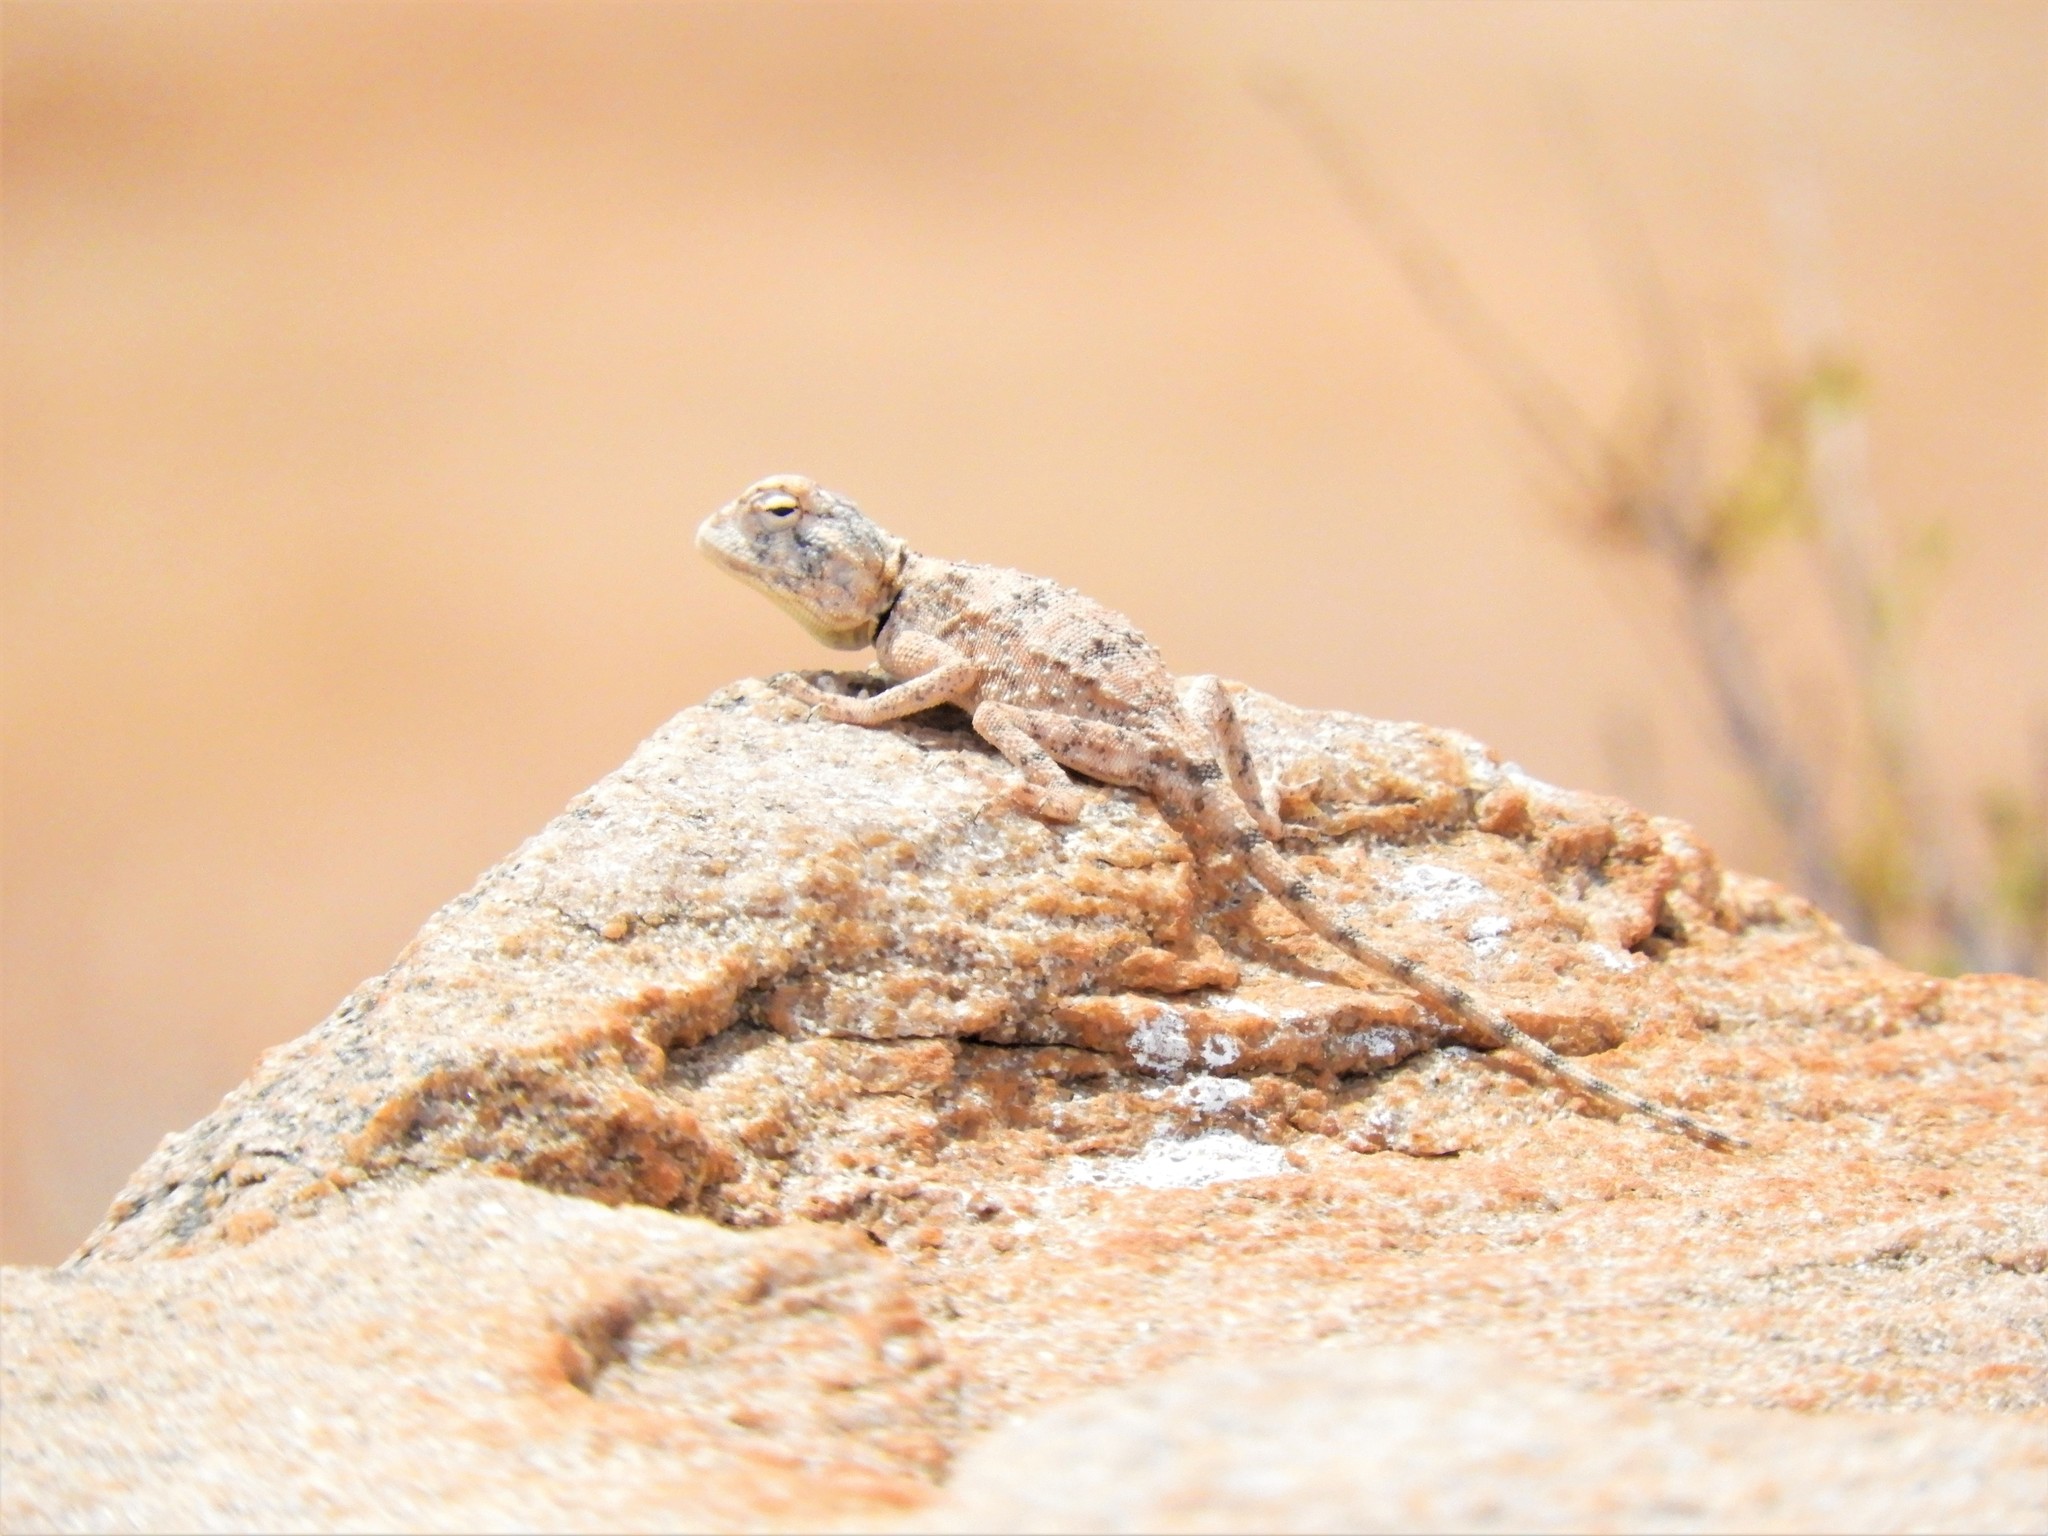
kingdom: Animalia
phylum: Chordata
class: Squamata
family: Agamidae
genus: Agama
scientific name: Agama anchietae
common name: Anchieta's agama
